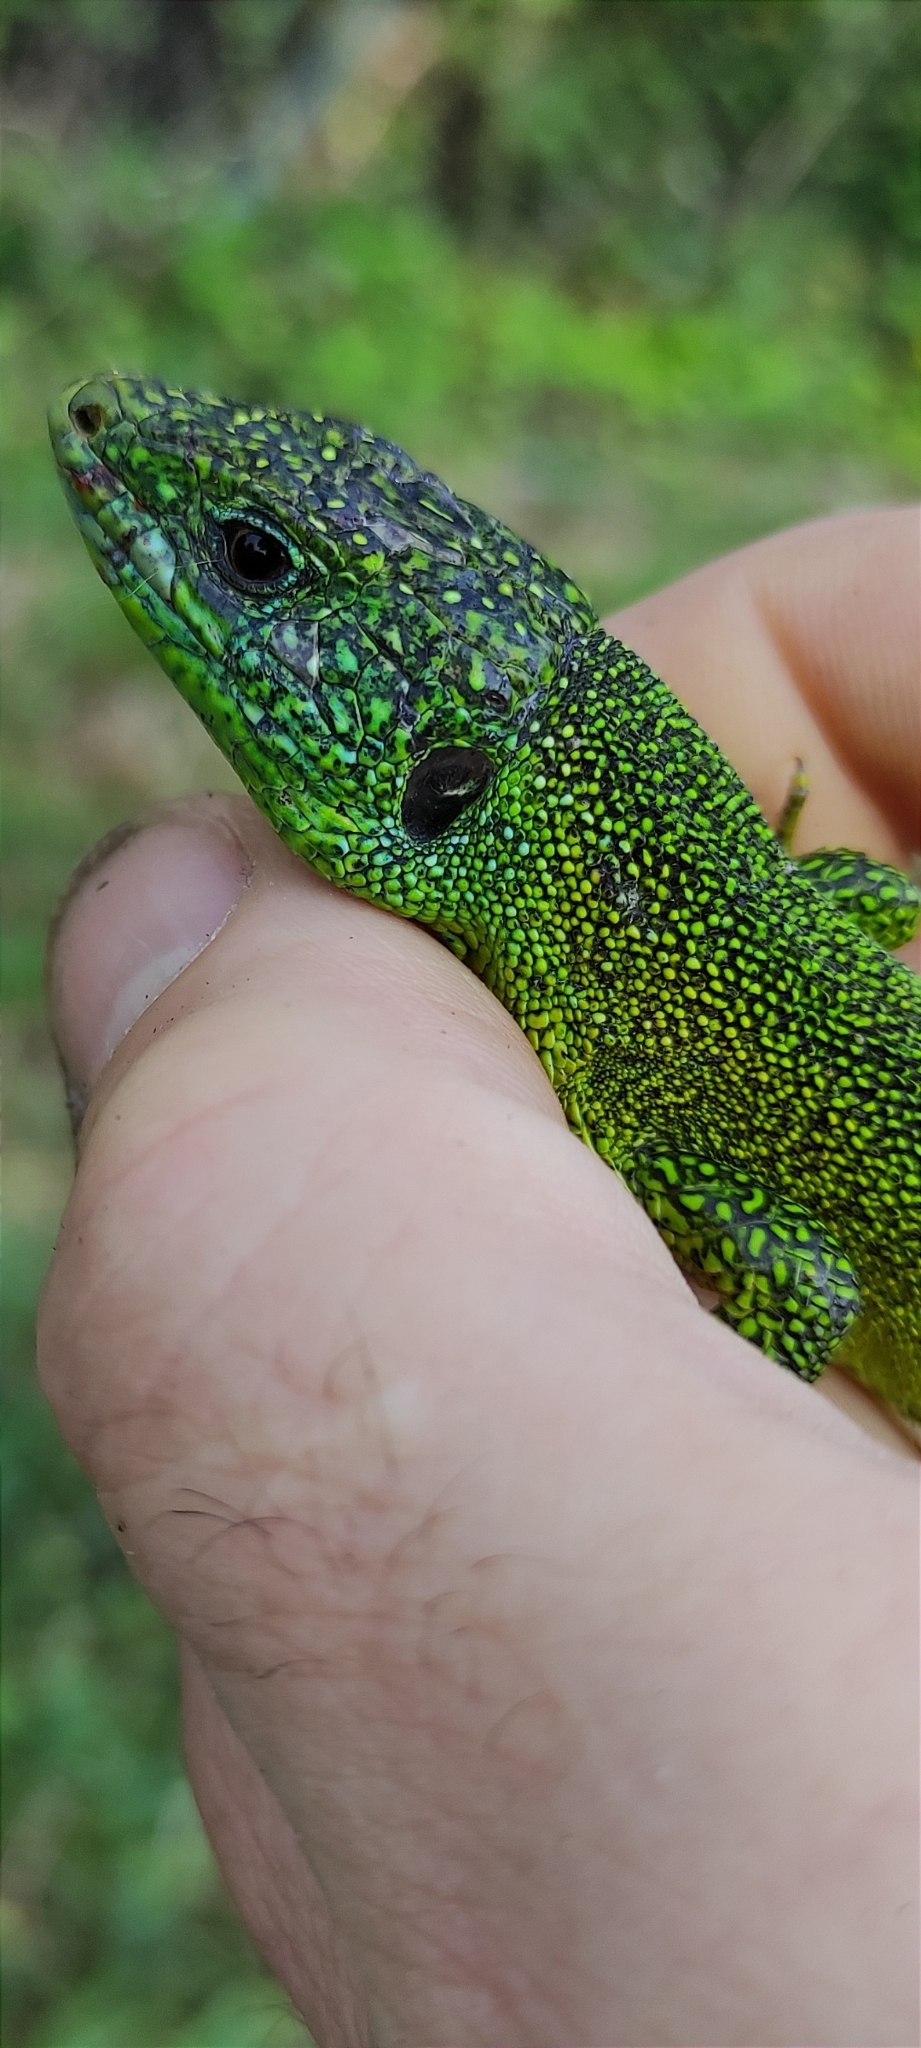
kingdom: Animalia
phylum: Chordata
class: Squamata
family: Lacertidae
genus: Lacerta
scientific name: Lacerta bilineata
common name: Western green lizard
